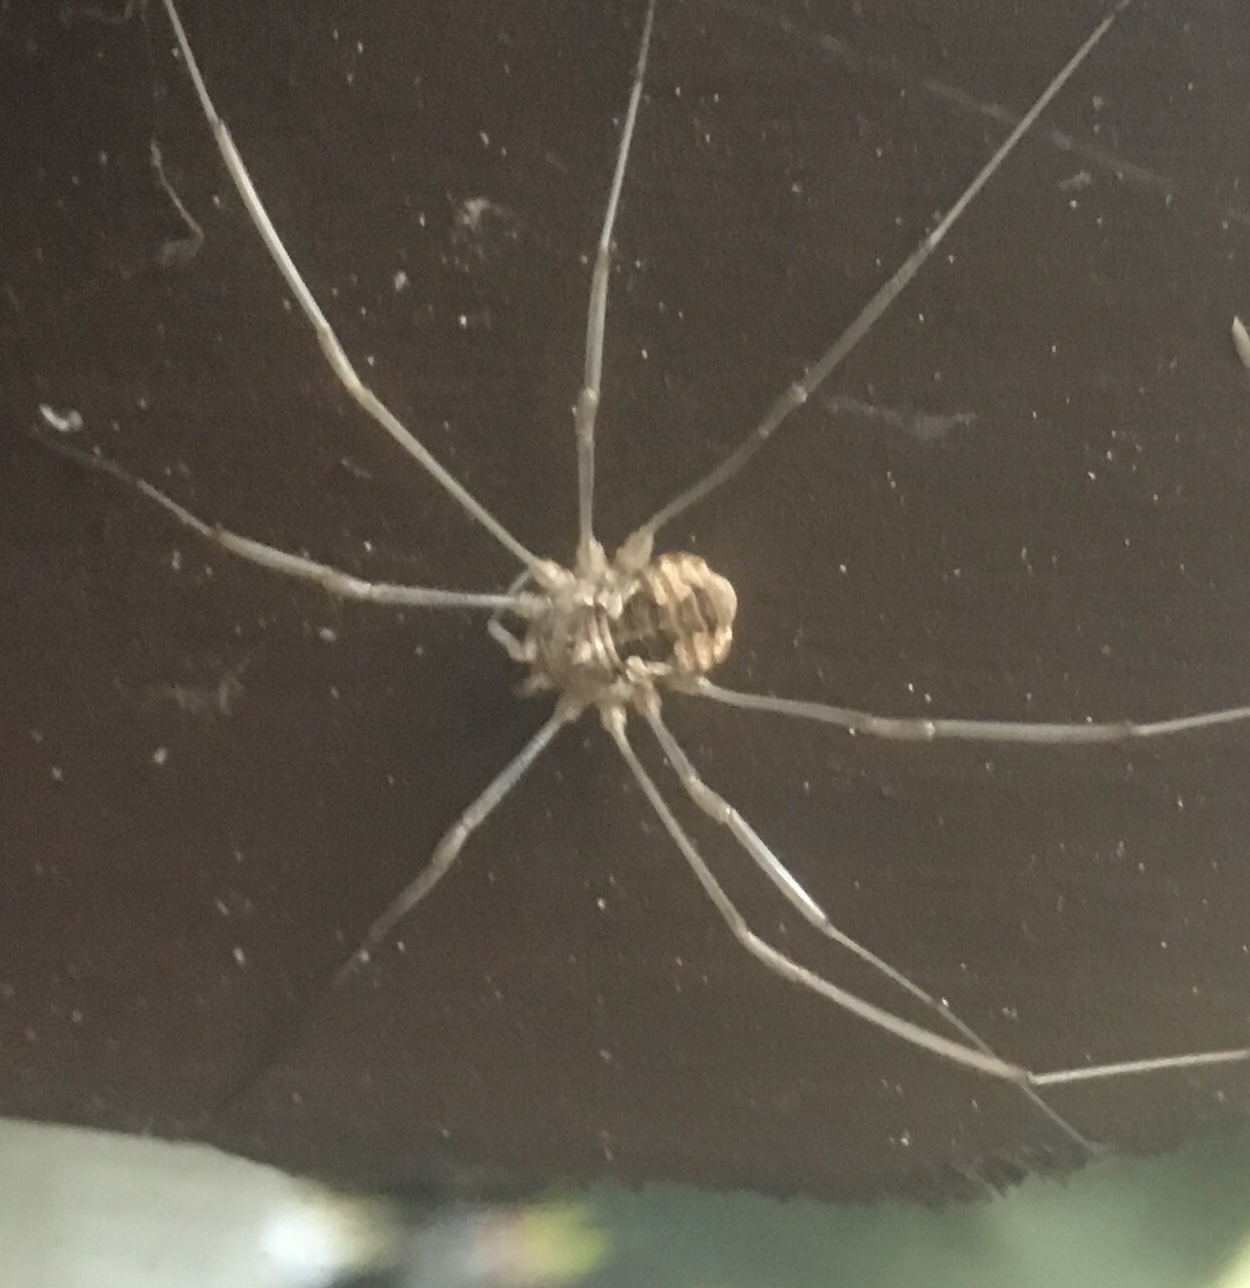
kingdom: Animalia
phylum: Arthropoda
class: Arachnida
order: Opiliones
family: Phalangiidae
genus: Phalangium
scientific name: Phalangium opilio
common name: Daddy longleg
